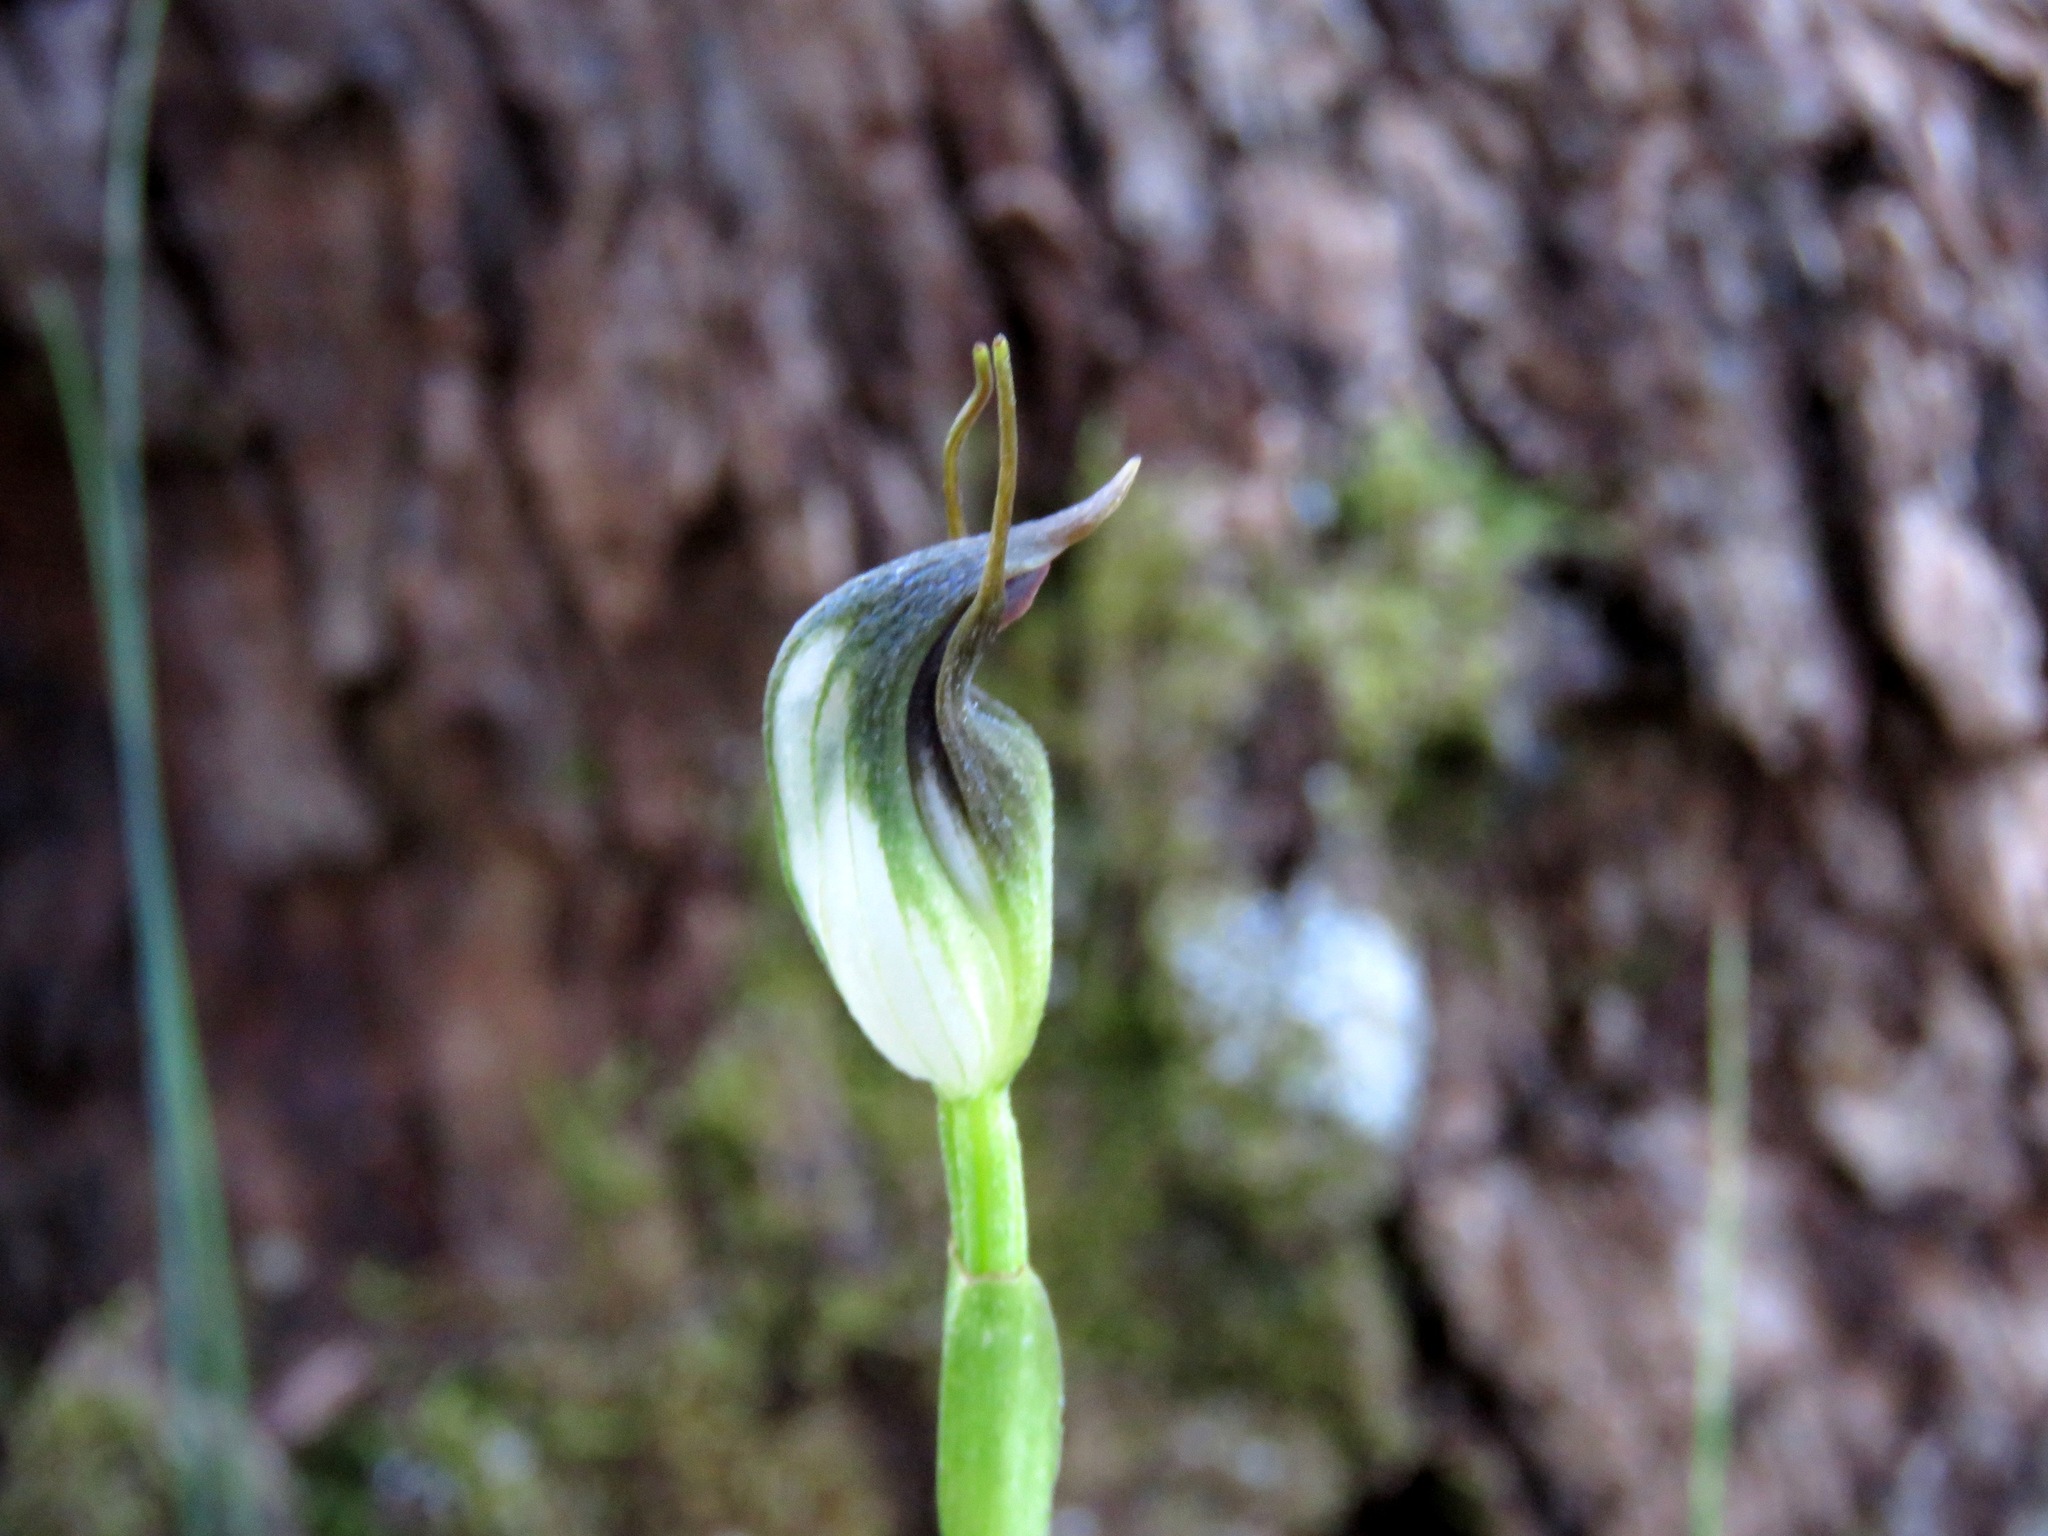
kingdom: Plantae
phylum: Tracheophyta
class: Liliopsida
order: Asparagales
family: Orchidaceae
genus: Pterostylis
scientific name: Pterostylis pedunculata
